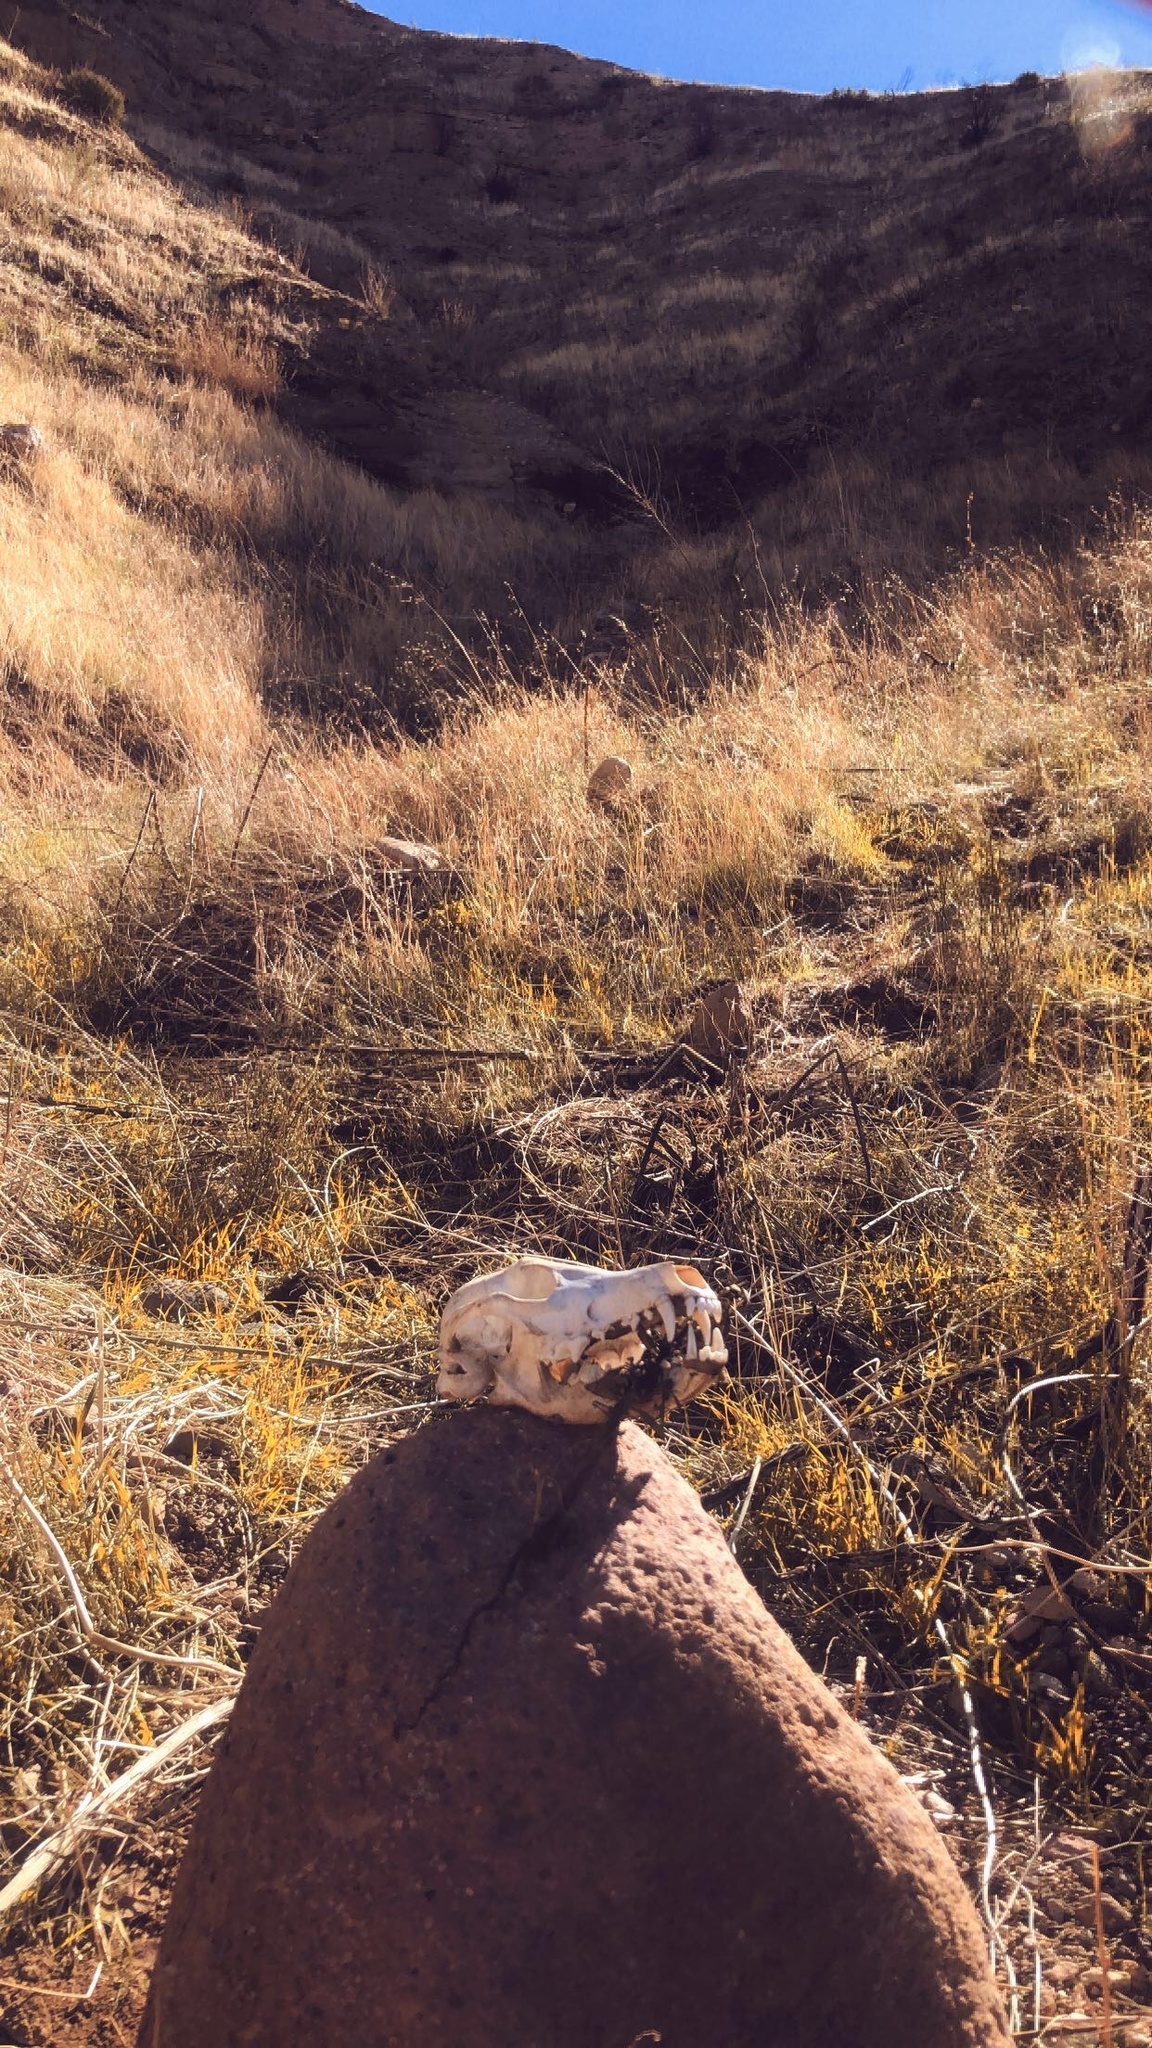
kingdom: Animalia
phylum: Chordata
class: Mammalia
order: Carnivora
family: Canidae
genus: Canis
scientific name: Canis latrans
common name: Coyote
